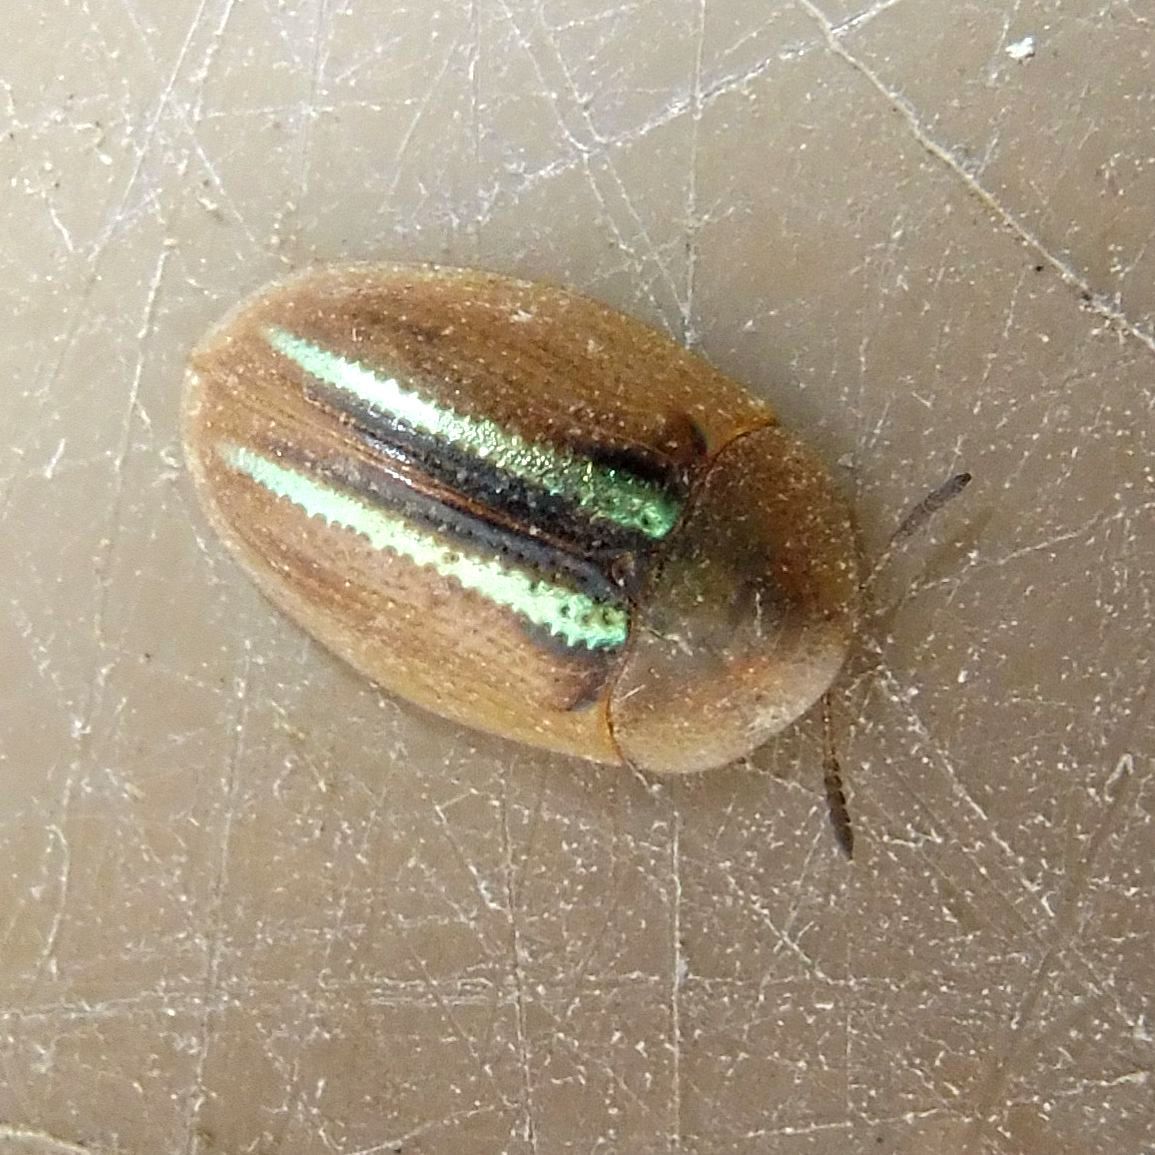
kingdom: Animalia
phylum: Arthropoda
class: Insecta
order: Coleoptera
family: Chrysomelidae
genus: Cassida
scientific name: Cassida nobilis
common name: Leaf beetle
